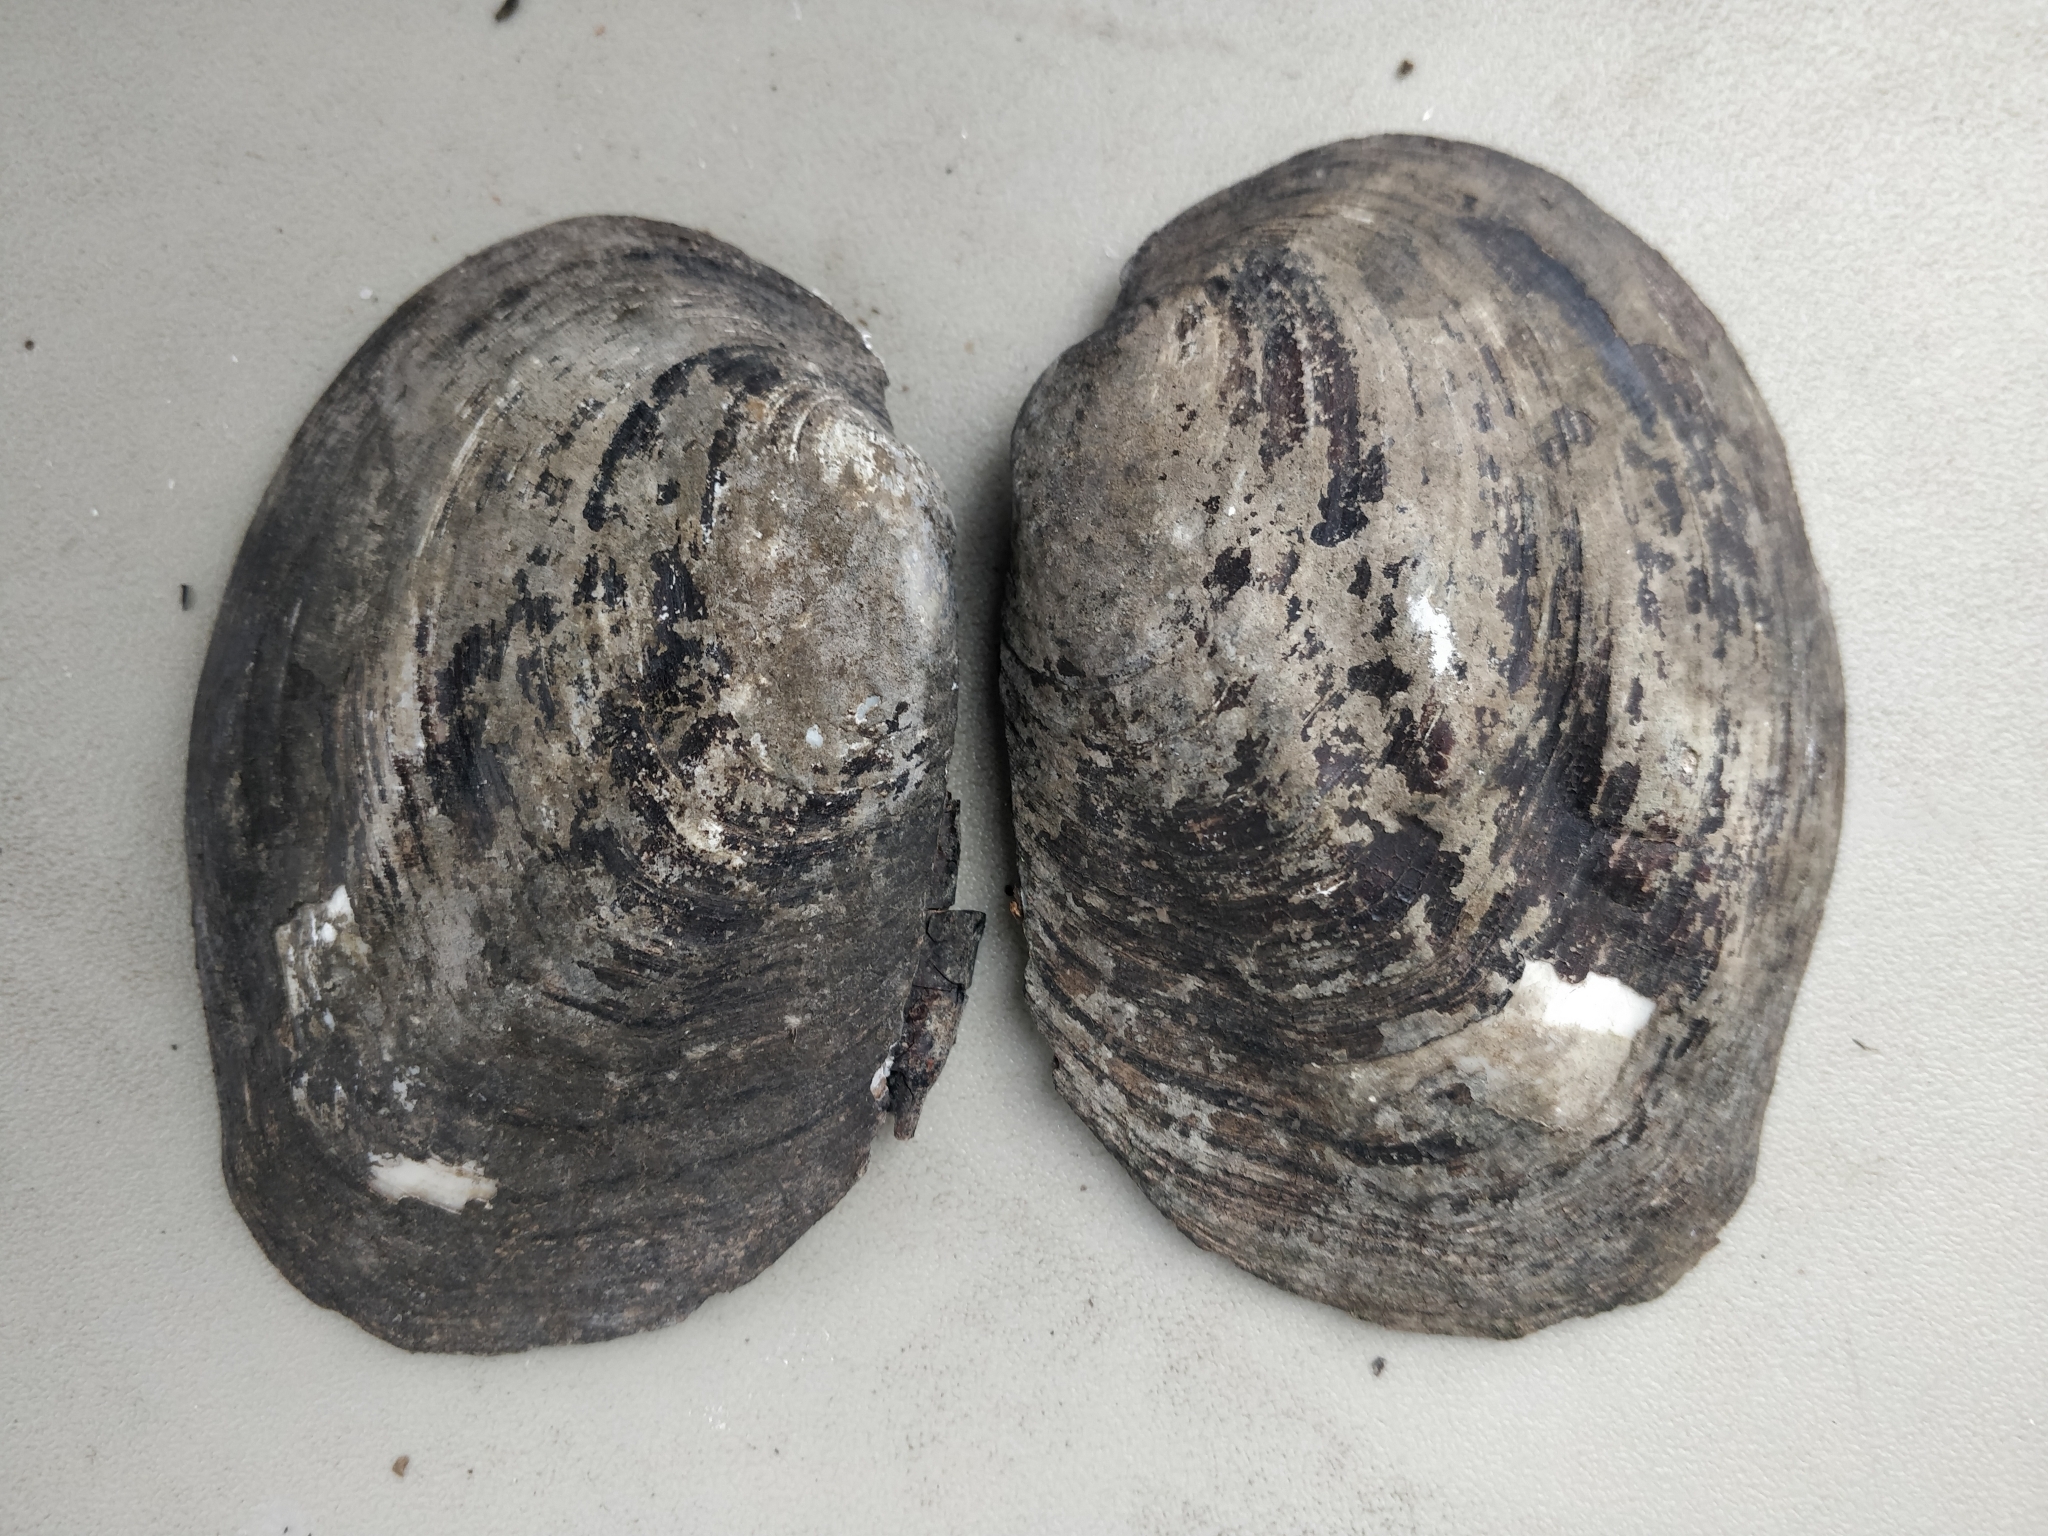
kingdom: Animalia
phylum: Mollusca
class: Bivalvia
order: Unionida
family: Unionidae
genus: Amblema
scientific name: Amblema plicata
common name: Threeridge
